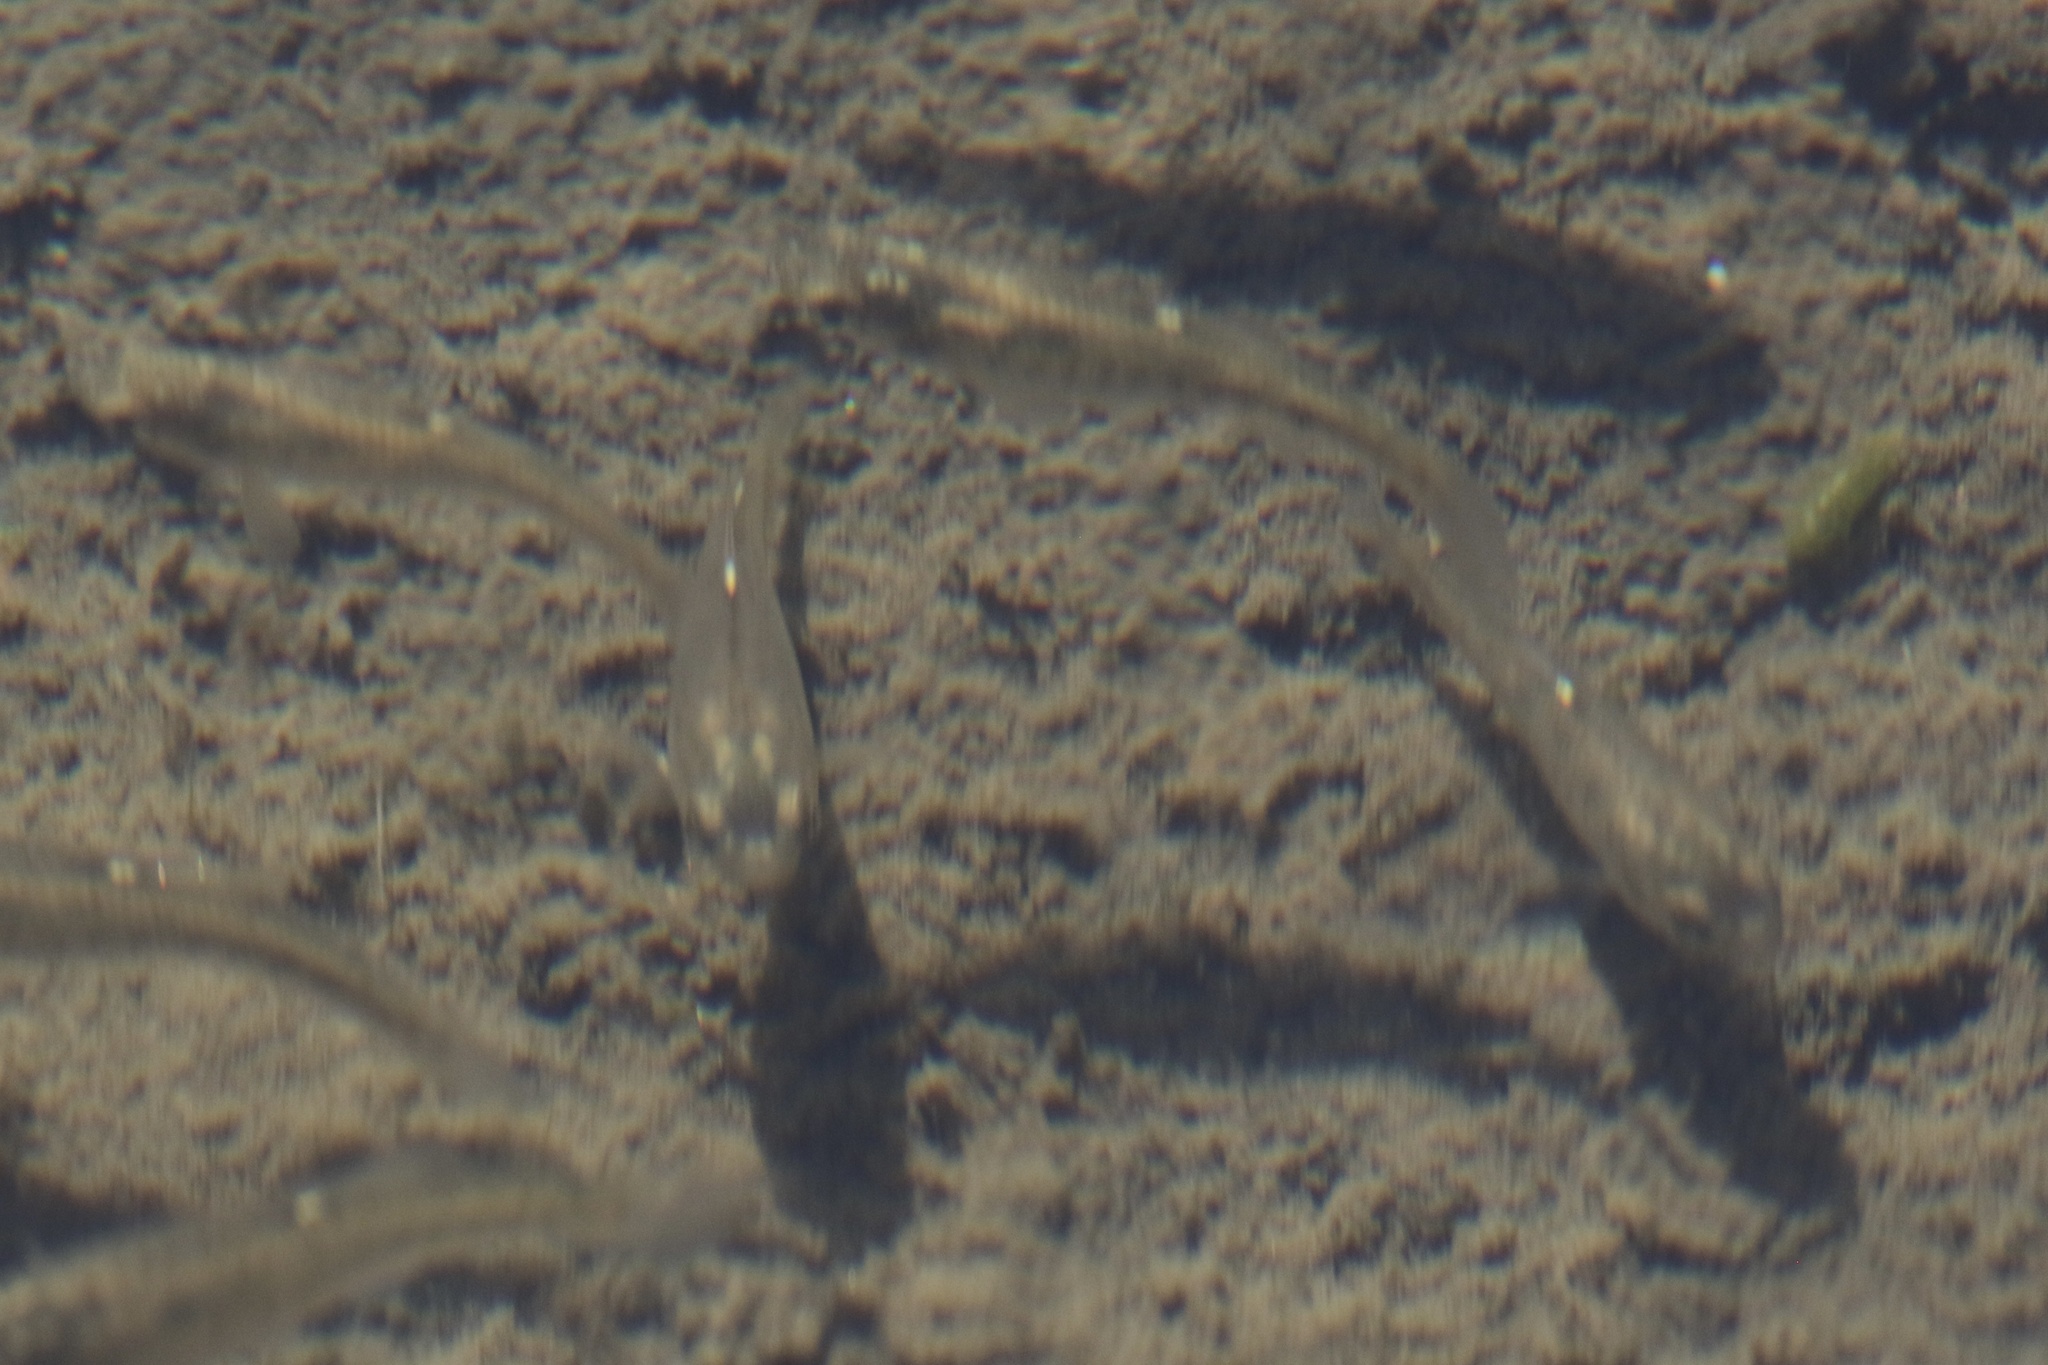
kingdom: Animalia
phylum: Chordata
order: Cyprinodontiformes
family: Fundulidae
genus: Fundulus
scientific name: Fundulus parvipinnis
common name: California killifish
